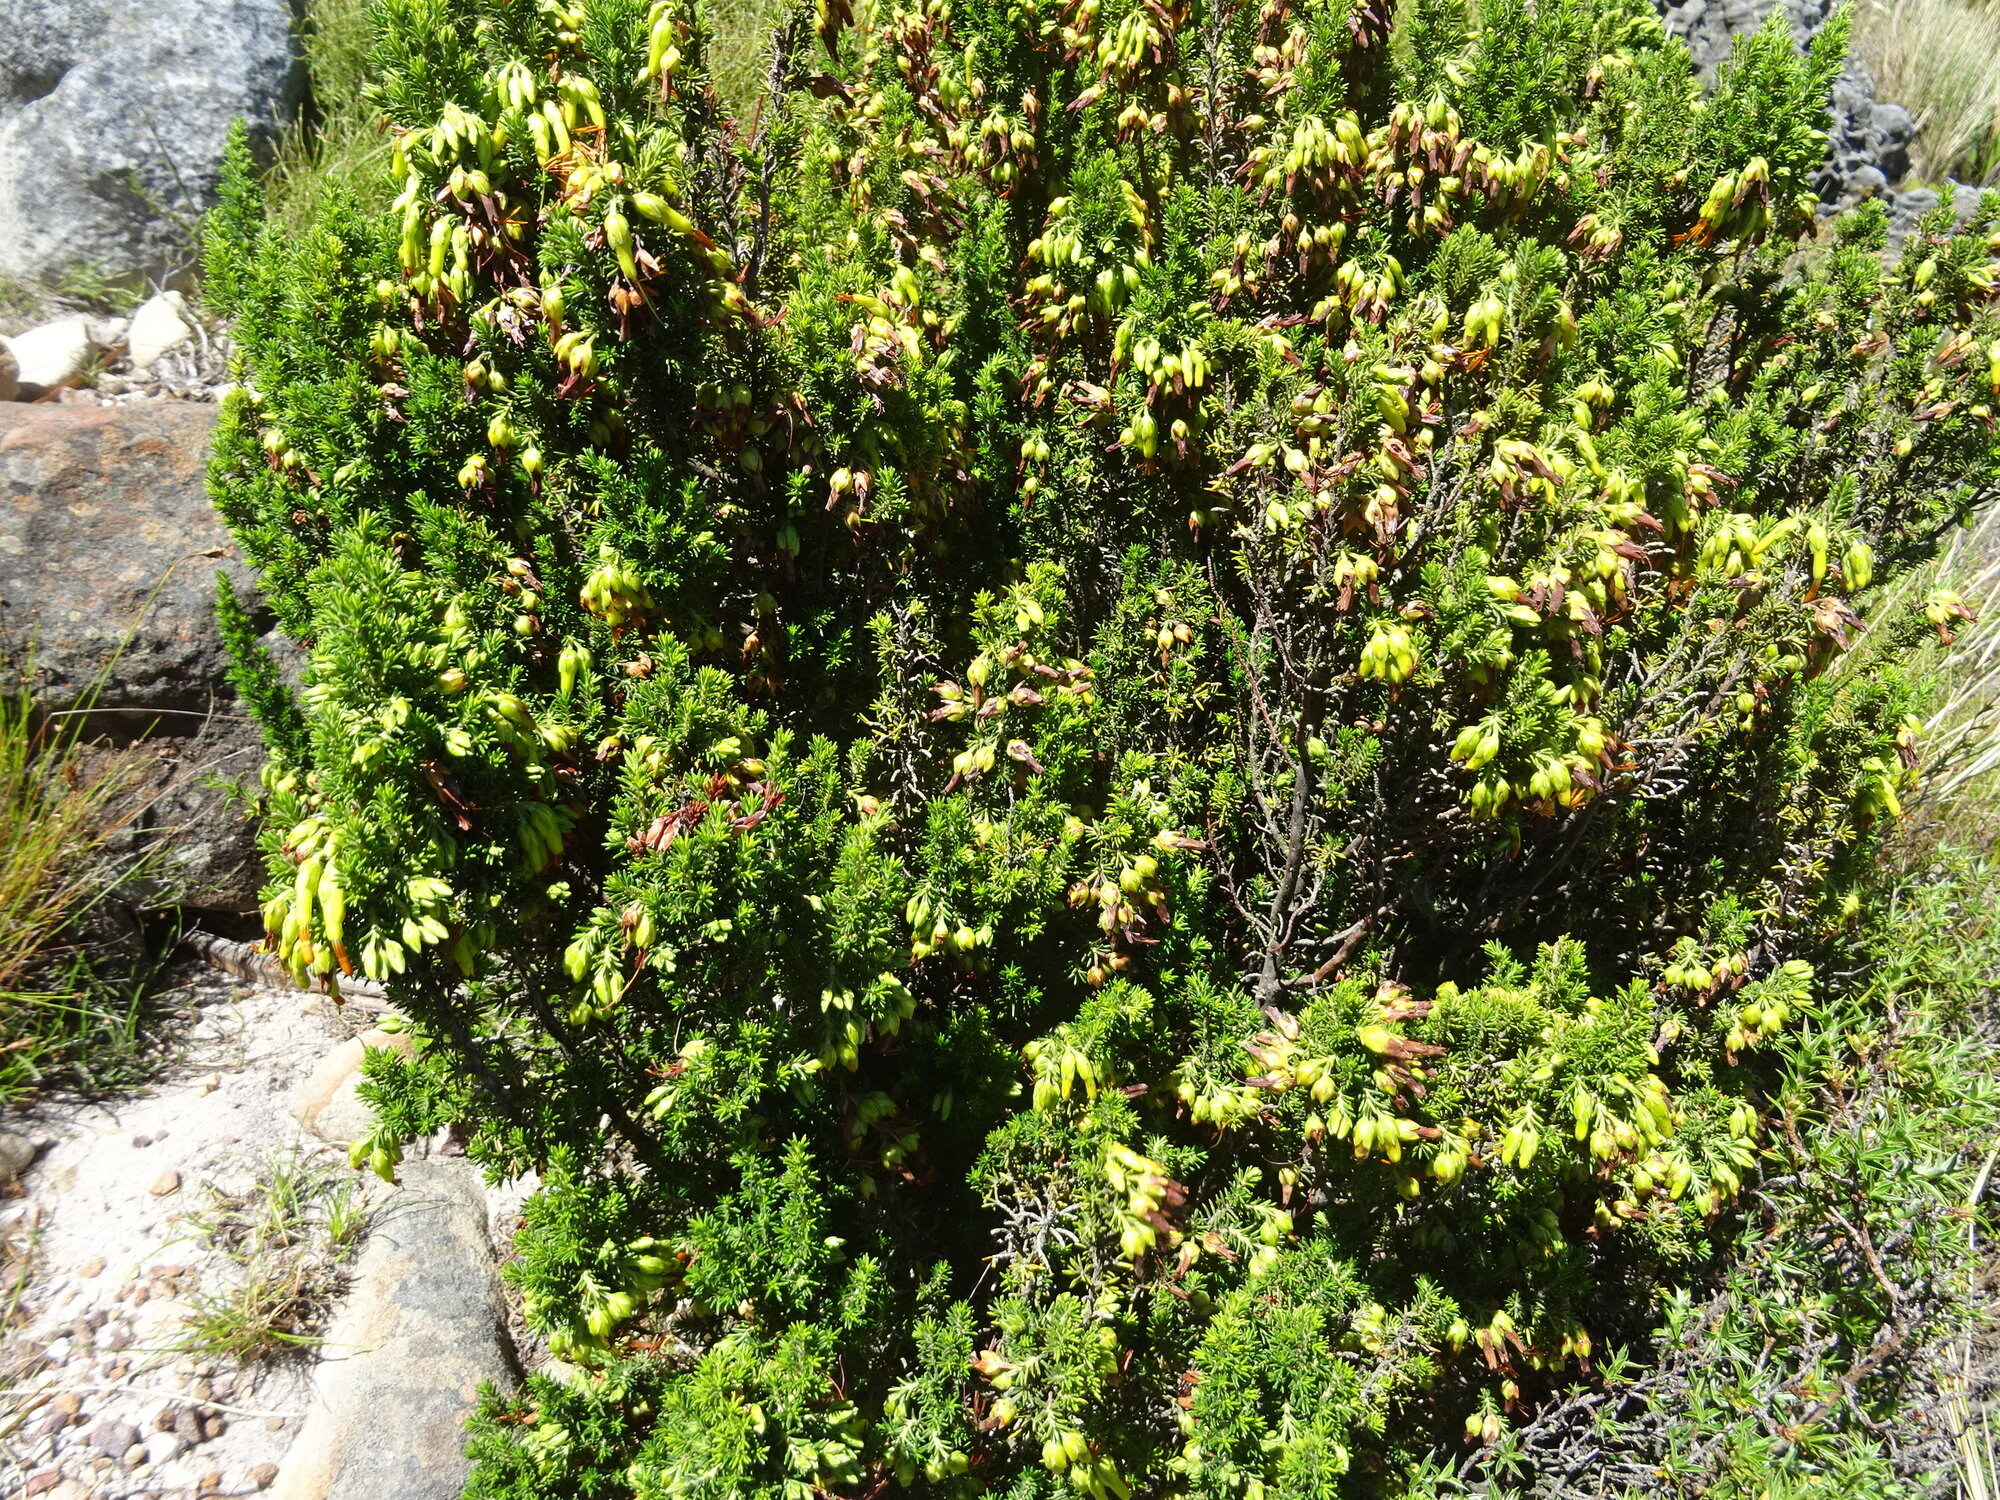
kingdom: Plantae
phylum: Tracheophyta
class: Magnoliopsida
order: Ericales
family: Ericaceae
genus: Erica
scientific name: Erica coccinea
